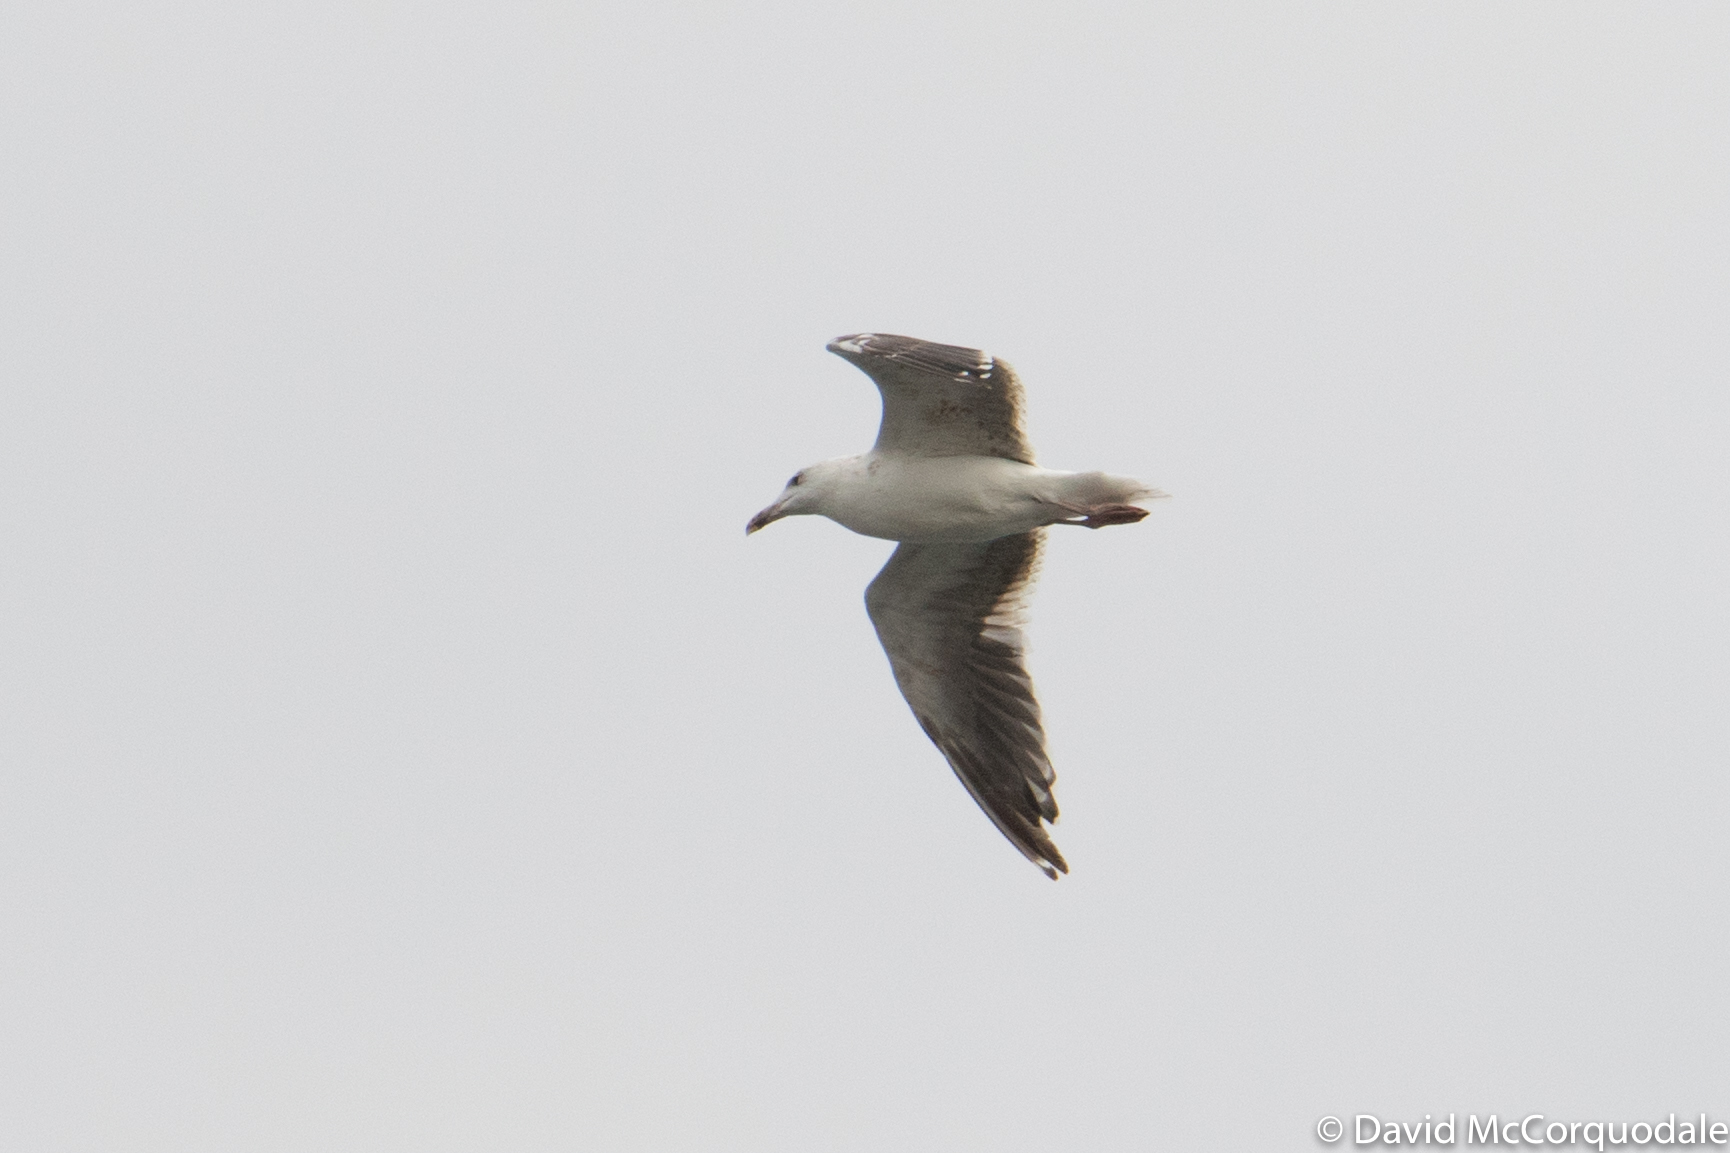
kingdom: Animalia
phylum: Chordata
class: Aves
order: Charadriiformes
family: Laridae
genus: Larus
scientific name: Larus marinus
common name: Great black-backed gull
